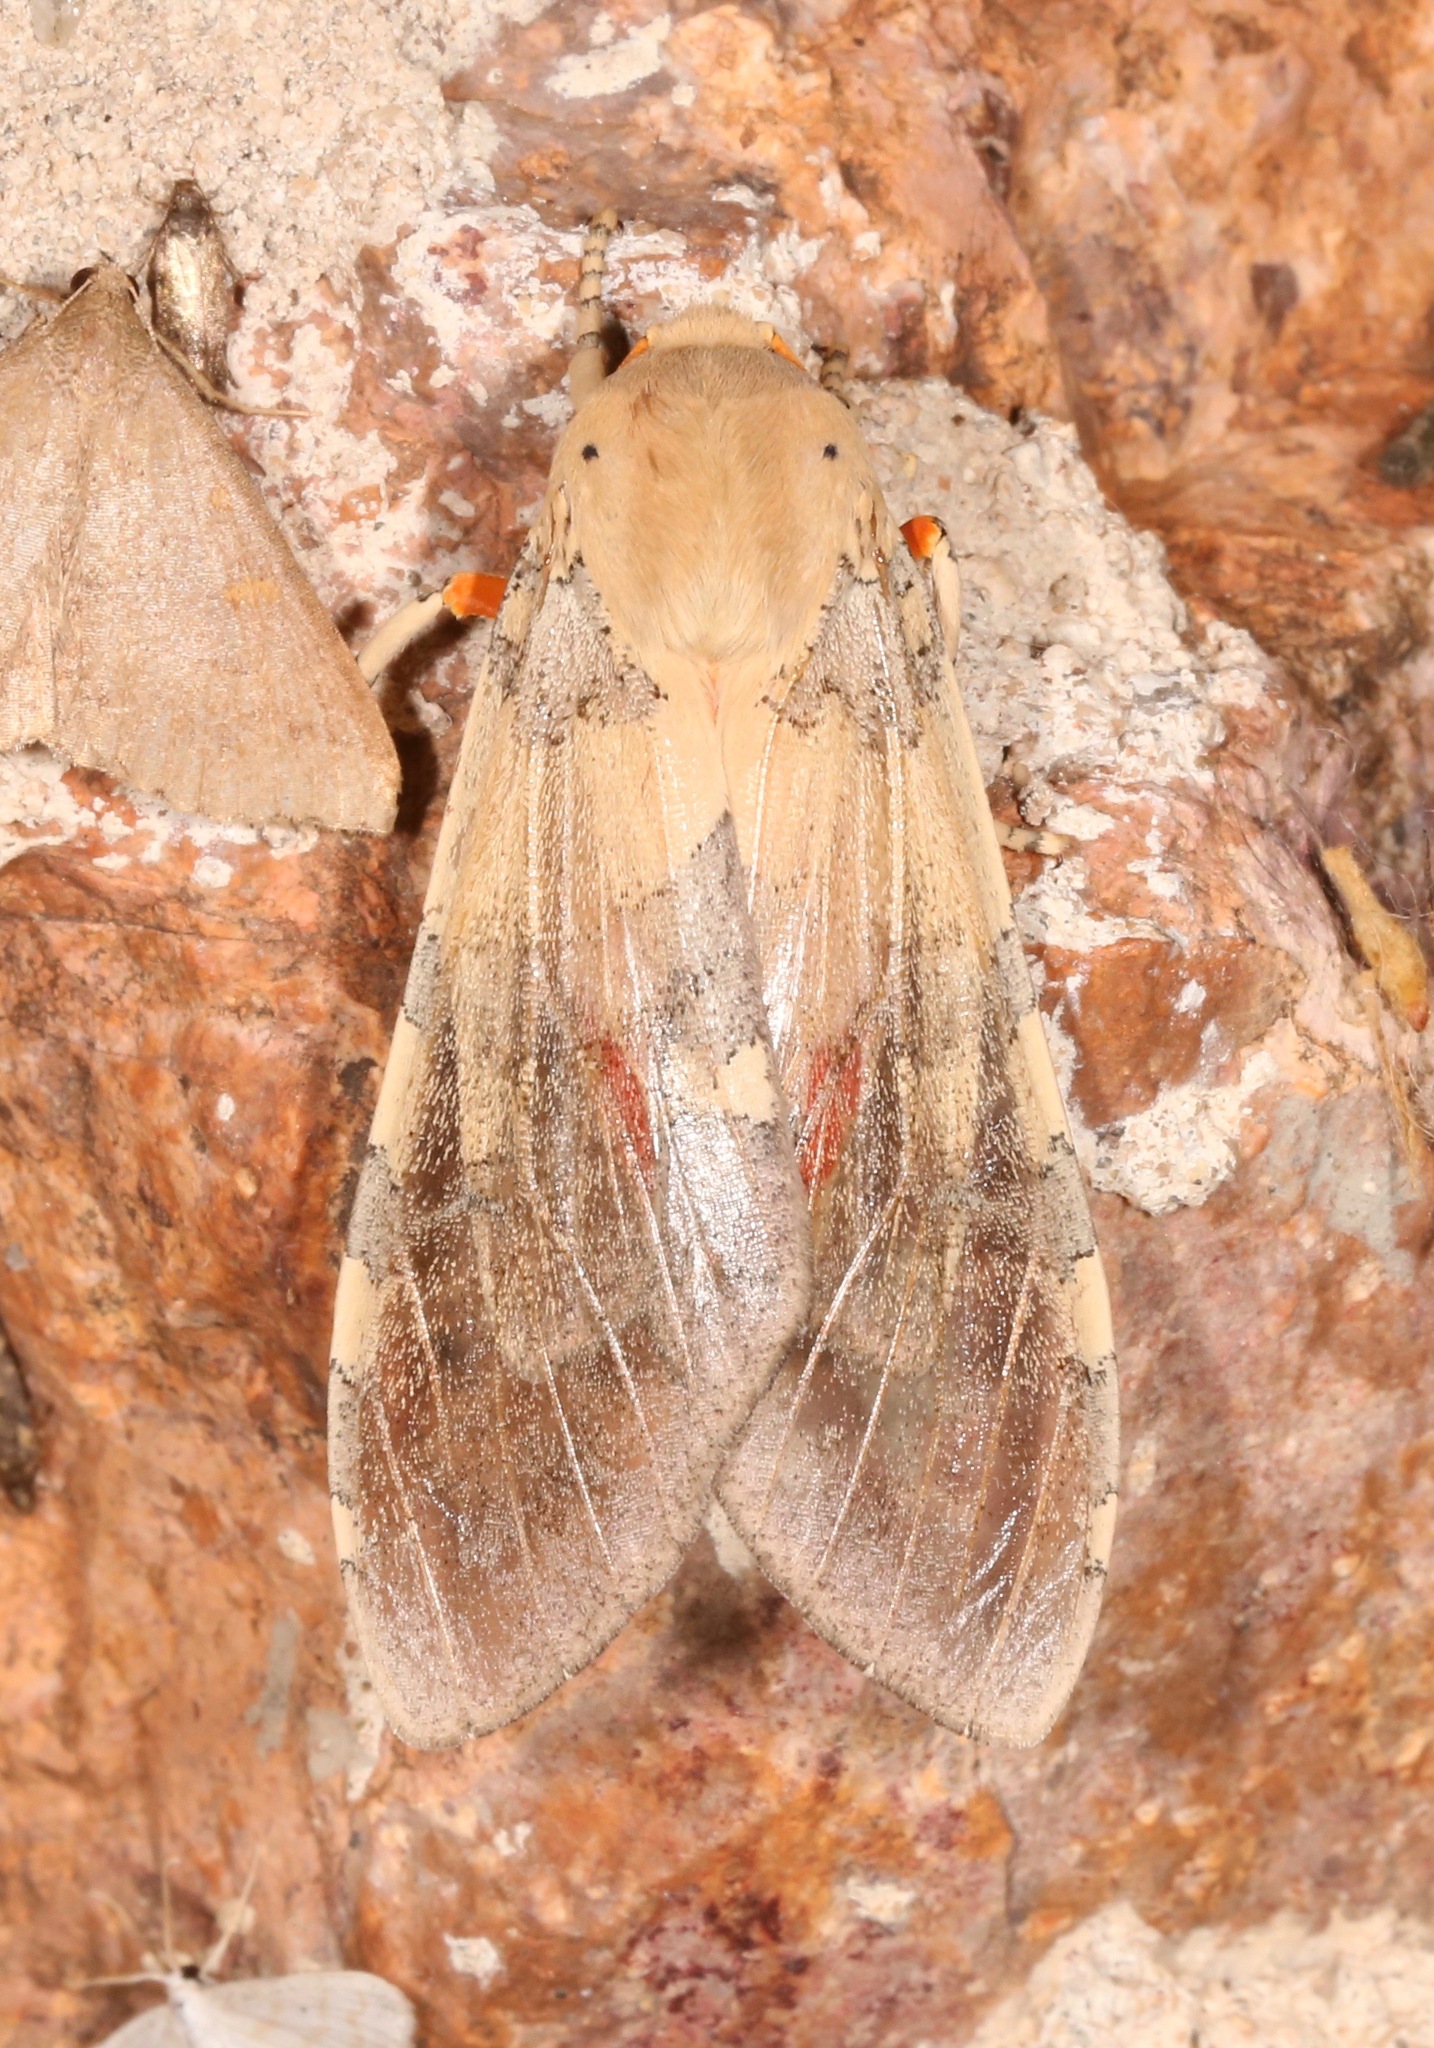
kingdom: Animalia
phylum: Arthropoda
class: Insecta
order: Lepidoptera
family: Erebidae
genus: Hemihyalea
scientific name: Hemihyalea edwardsii
